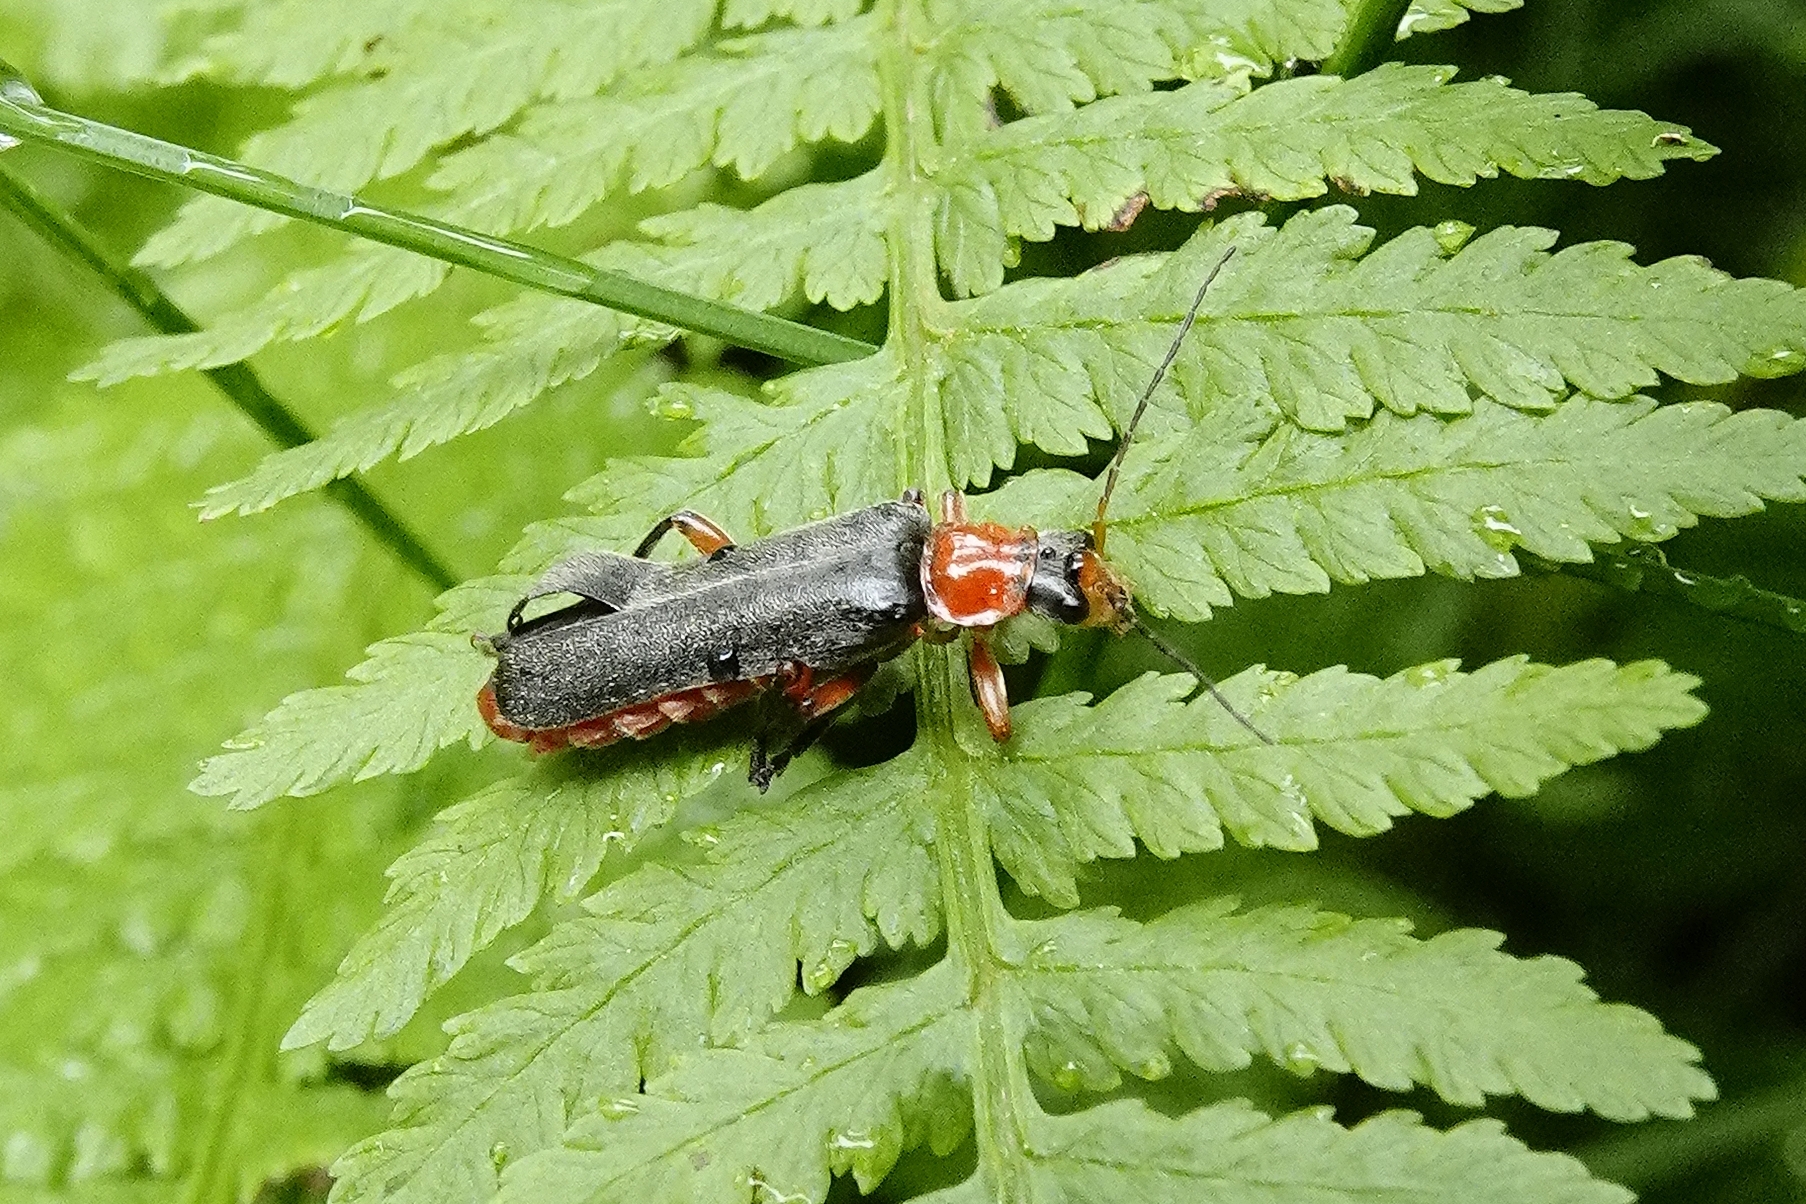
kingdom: Animalia
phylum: Arthropoda
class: Insecta
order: Coleoptera
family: Cantharidae
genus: Cantharis
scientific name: Cantharis pellucida
